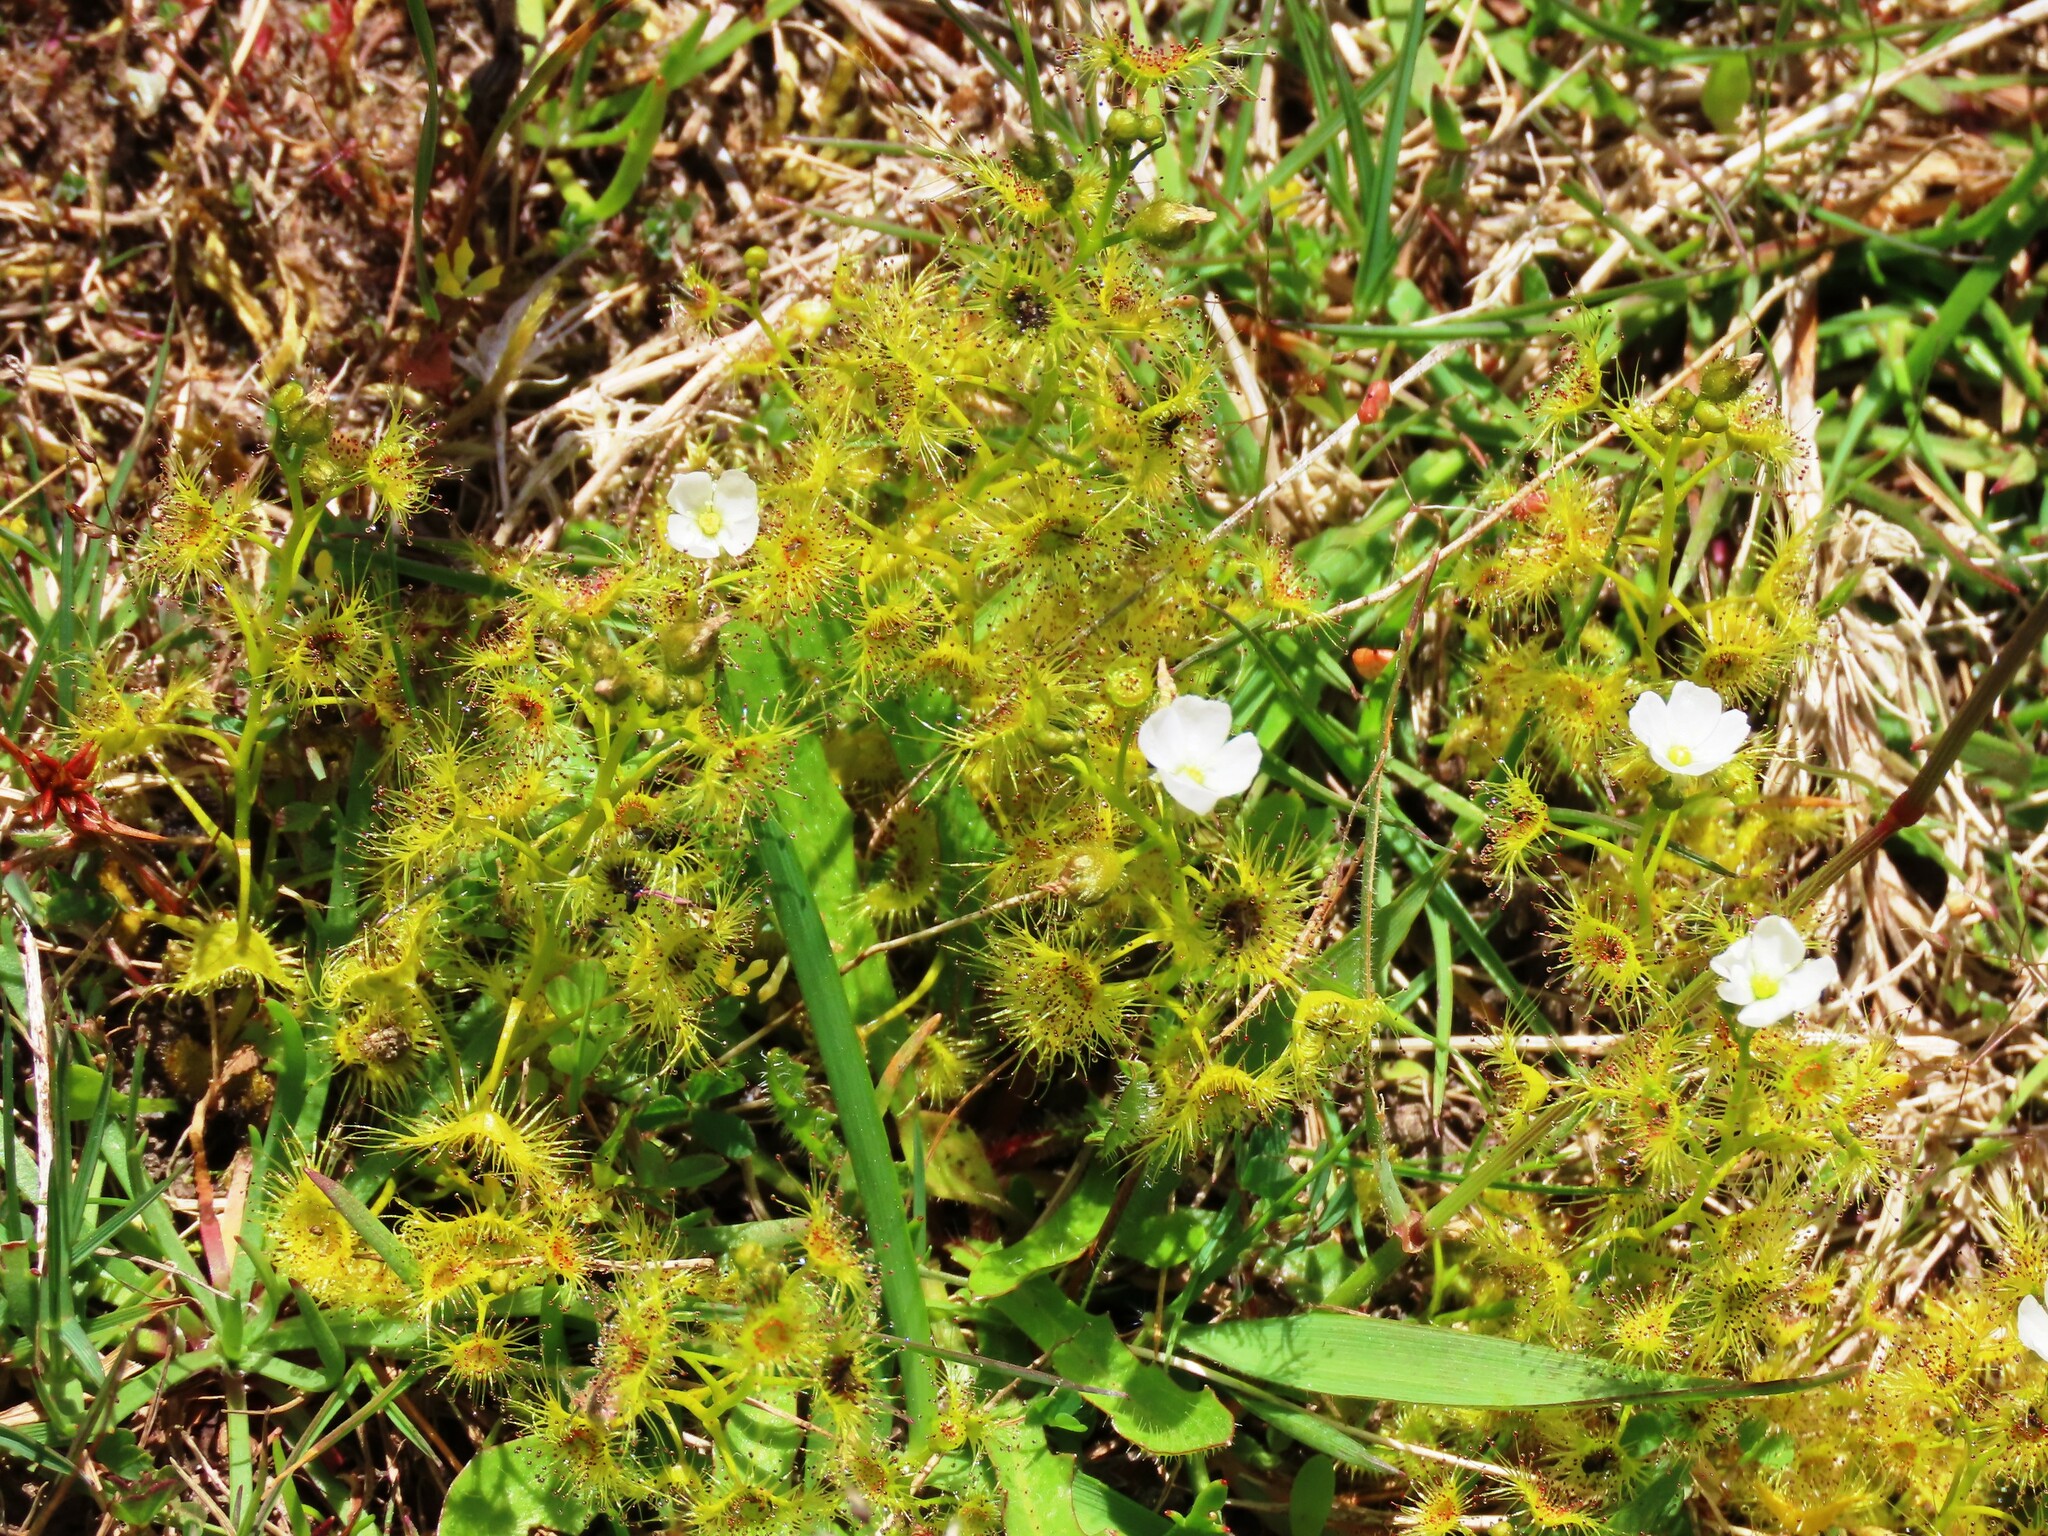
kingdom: Plantae
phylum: Tracheophyta
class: Magnoliopsida
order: Caryophyllales
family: Droseraceae
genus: Drosera
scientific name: Drosera hookeri
